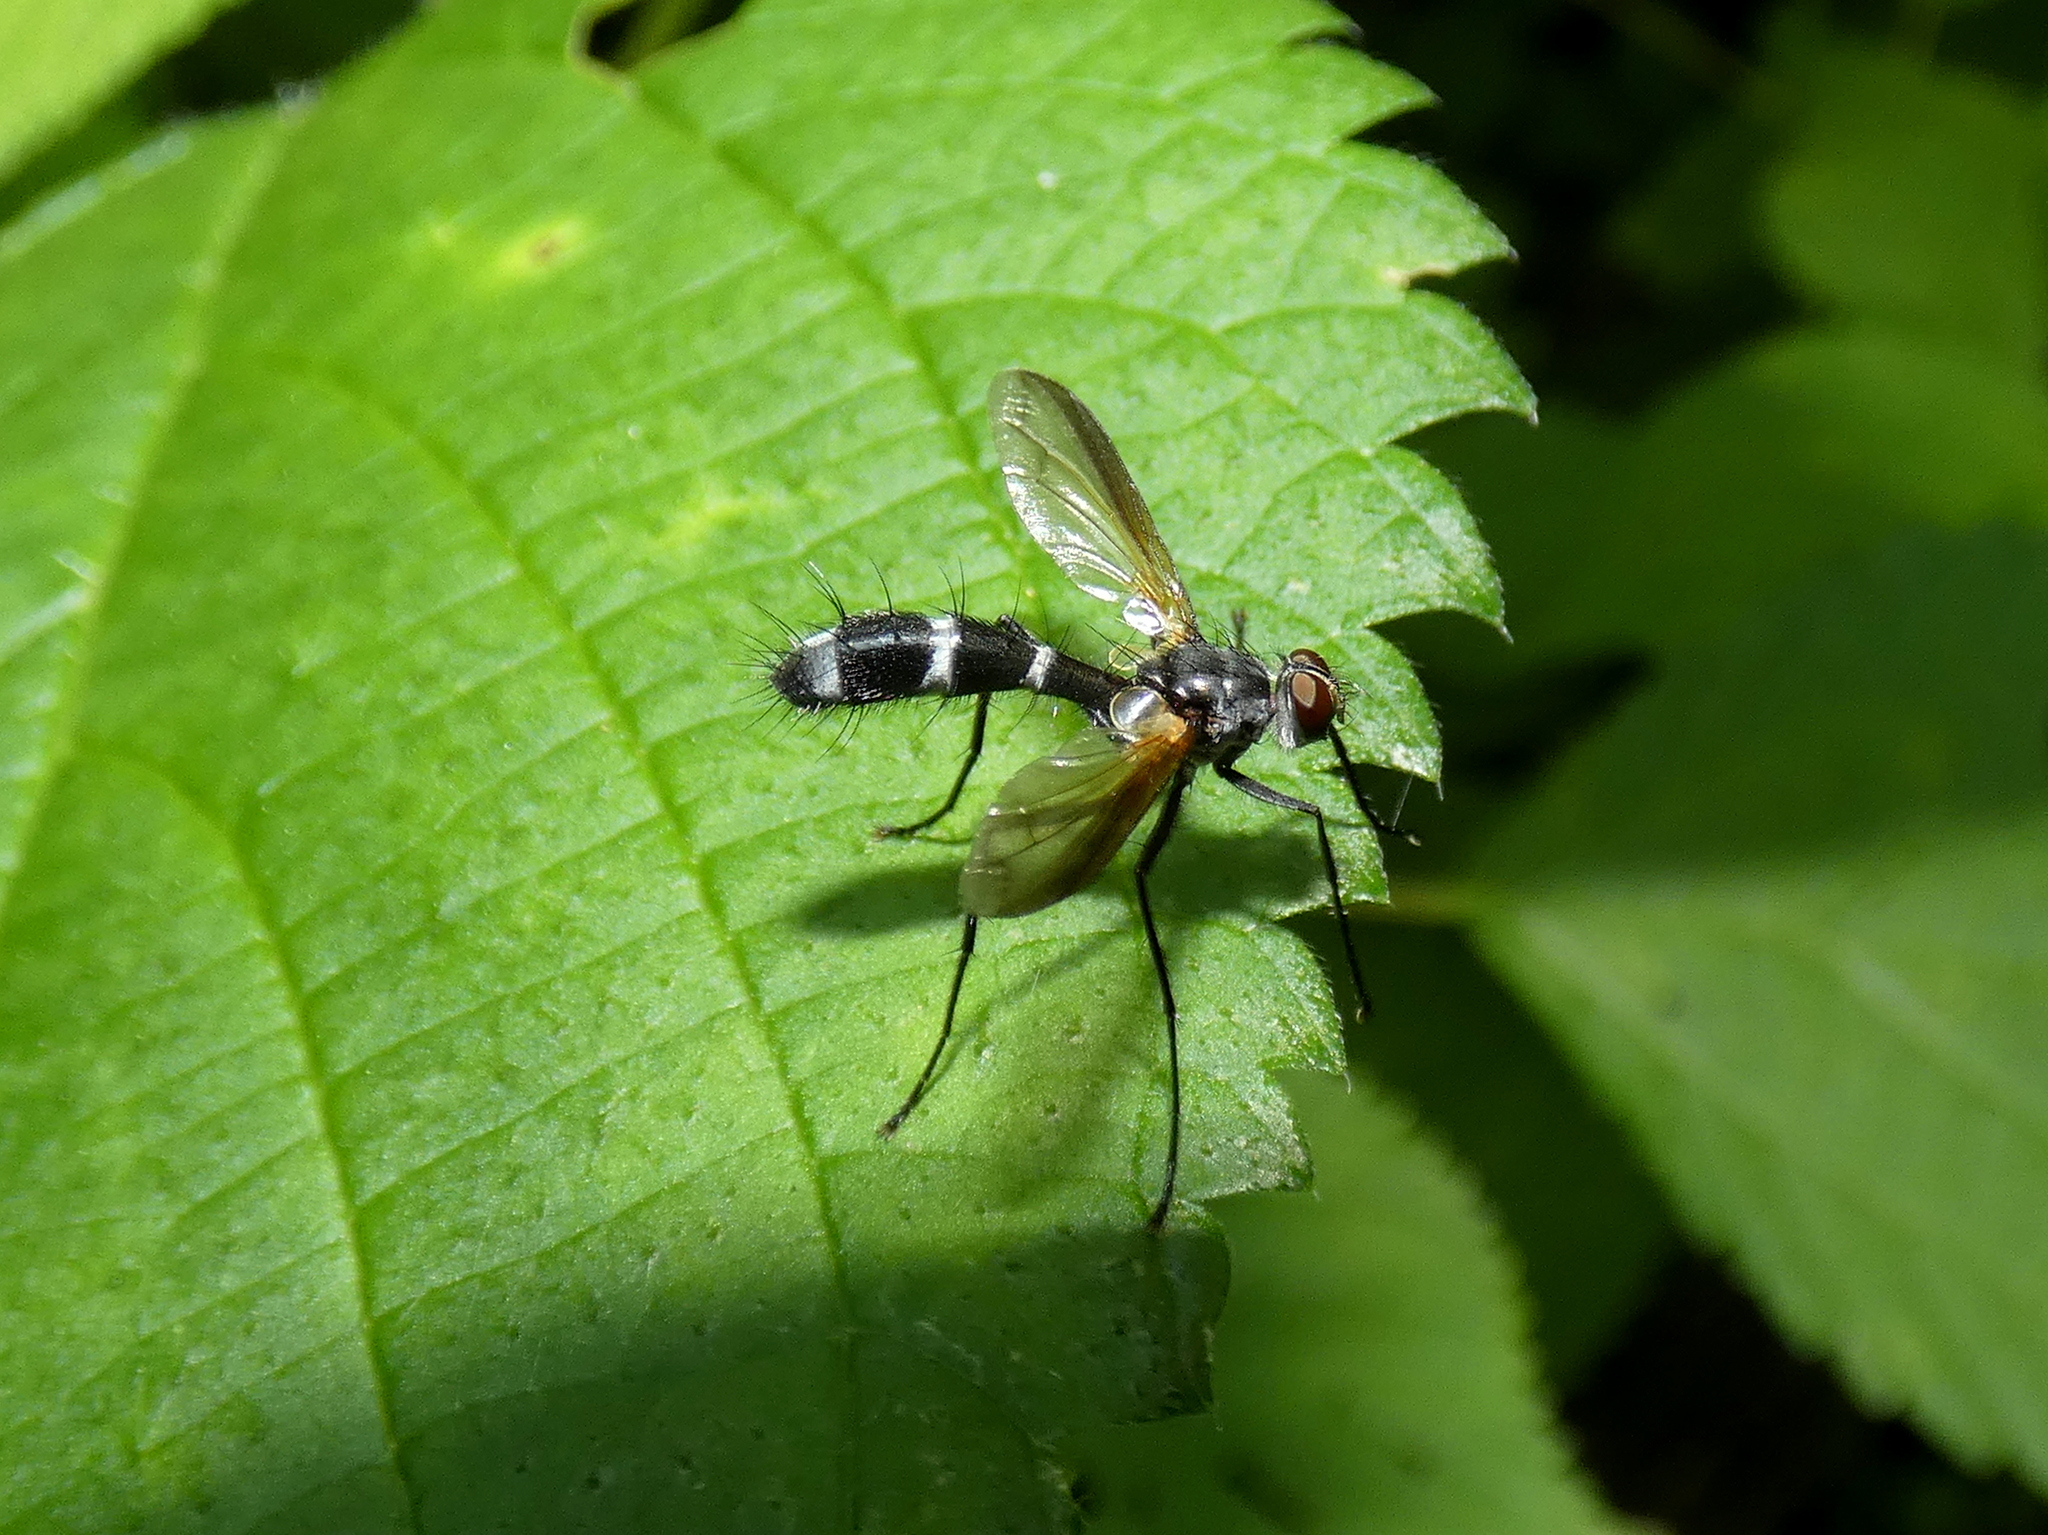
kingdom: Animalia
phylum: Arthropoda
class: Insecta
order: Diptera
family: Tachinidae
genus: Cordyligaster
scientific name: Cordyligaster septentrionalis
